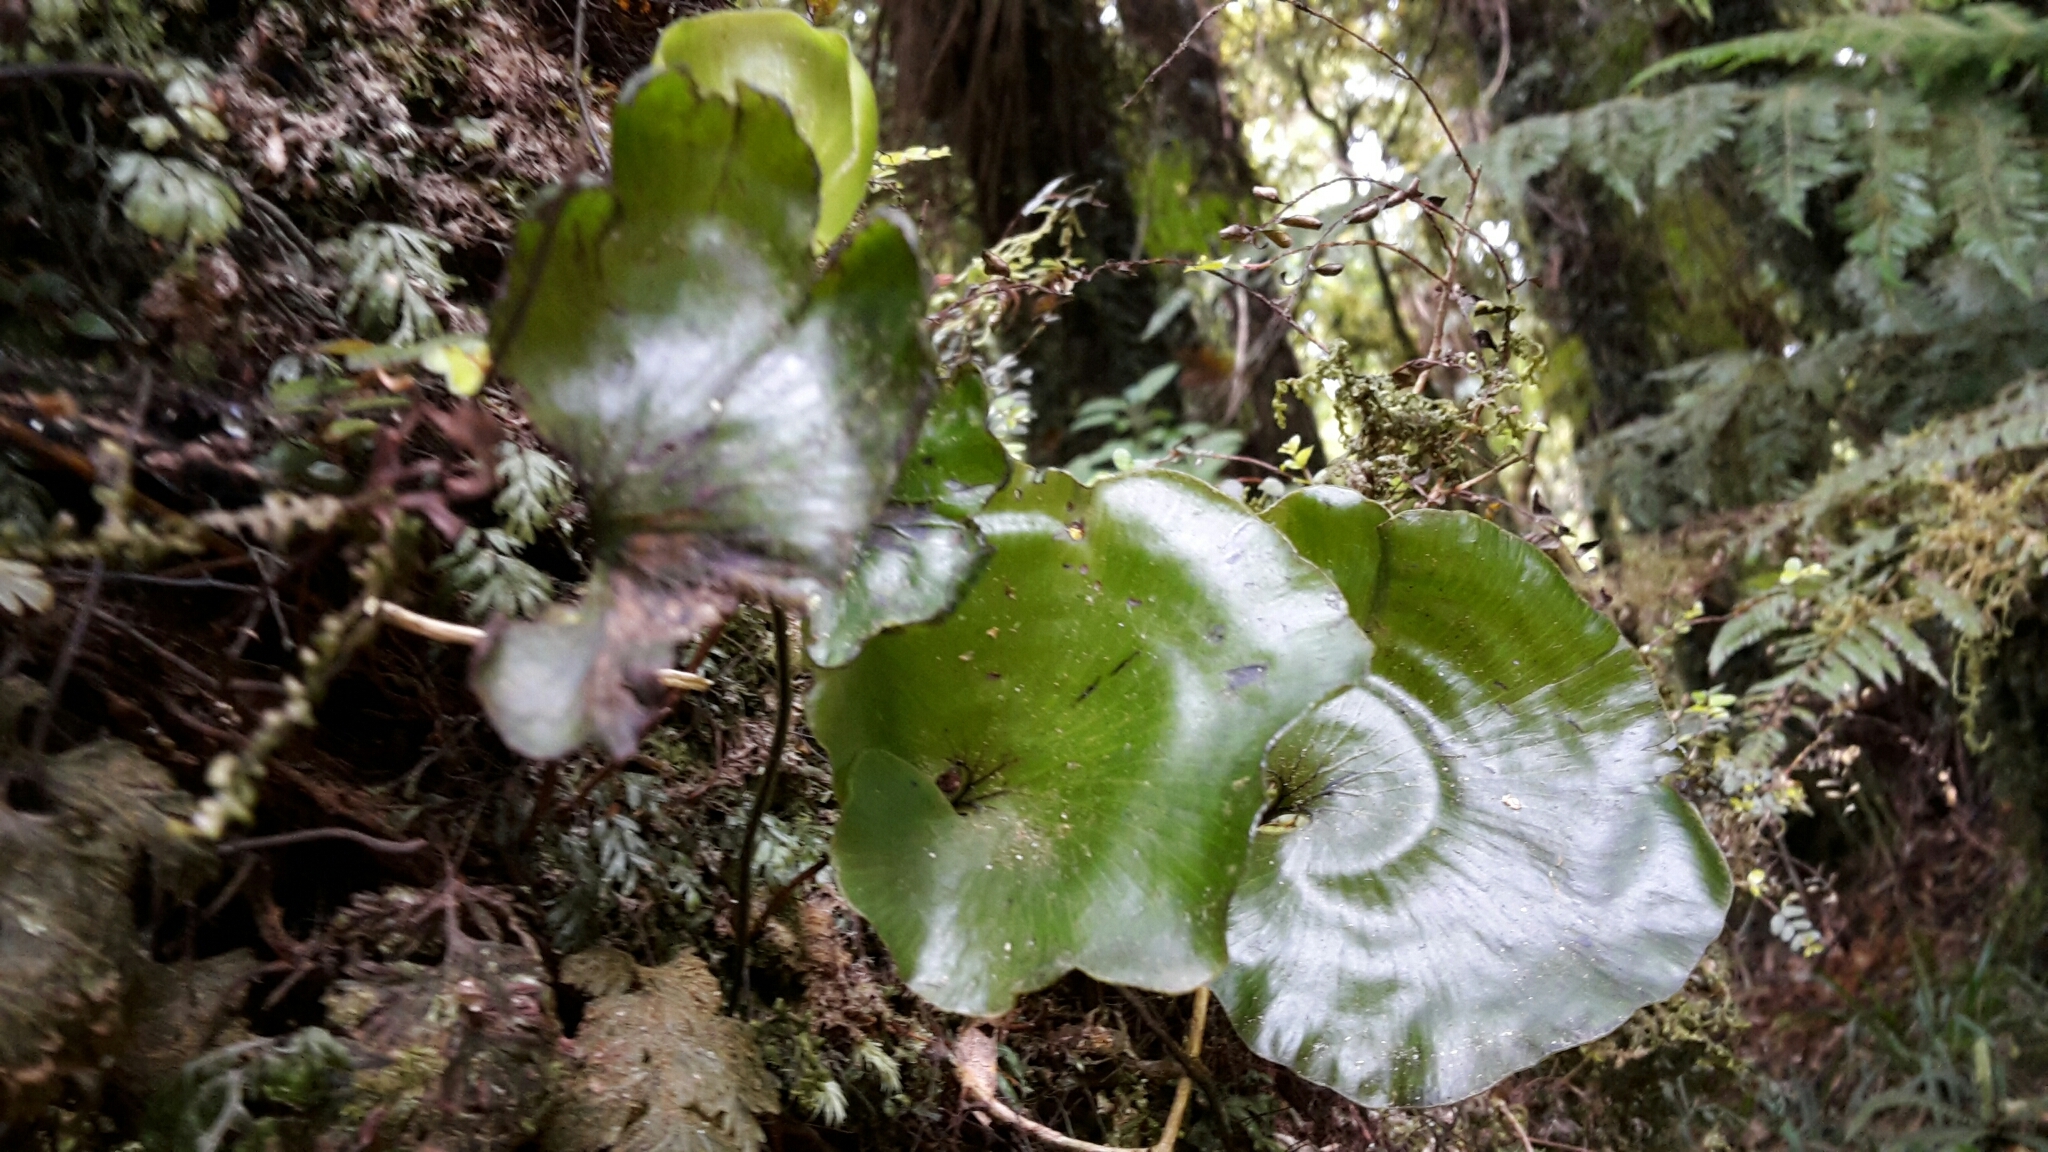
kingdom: Plantae
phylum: Tracheophyta
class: Polypodiopsida
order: Hymenophyllales
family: Hymenophyllaceae
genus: Hymenophyllum
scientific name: Hymenophyllum nephrophyllum
